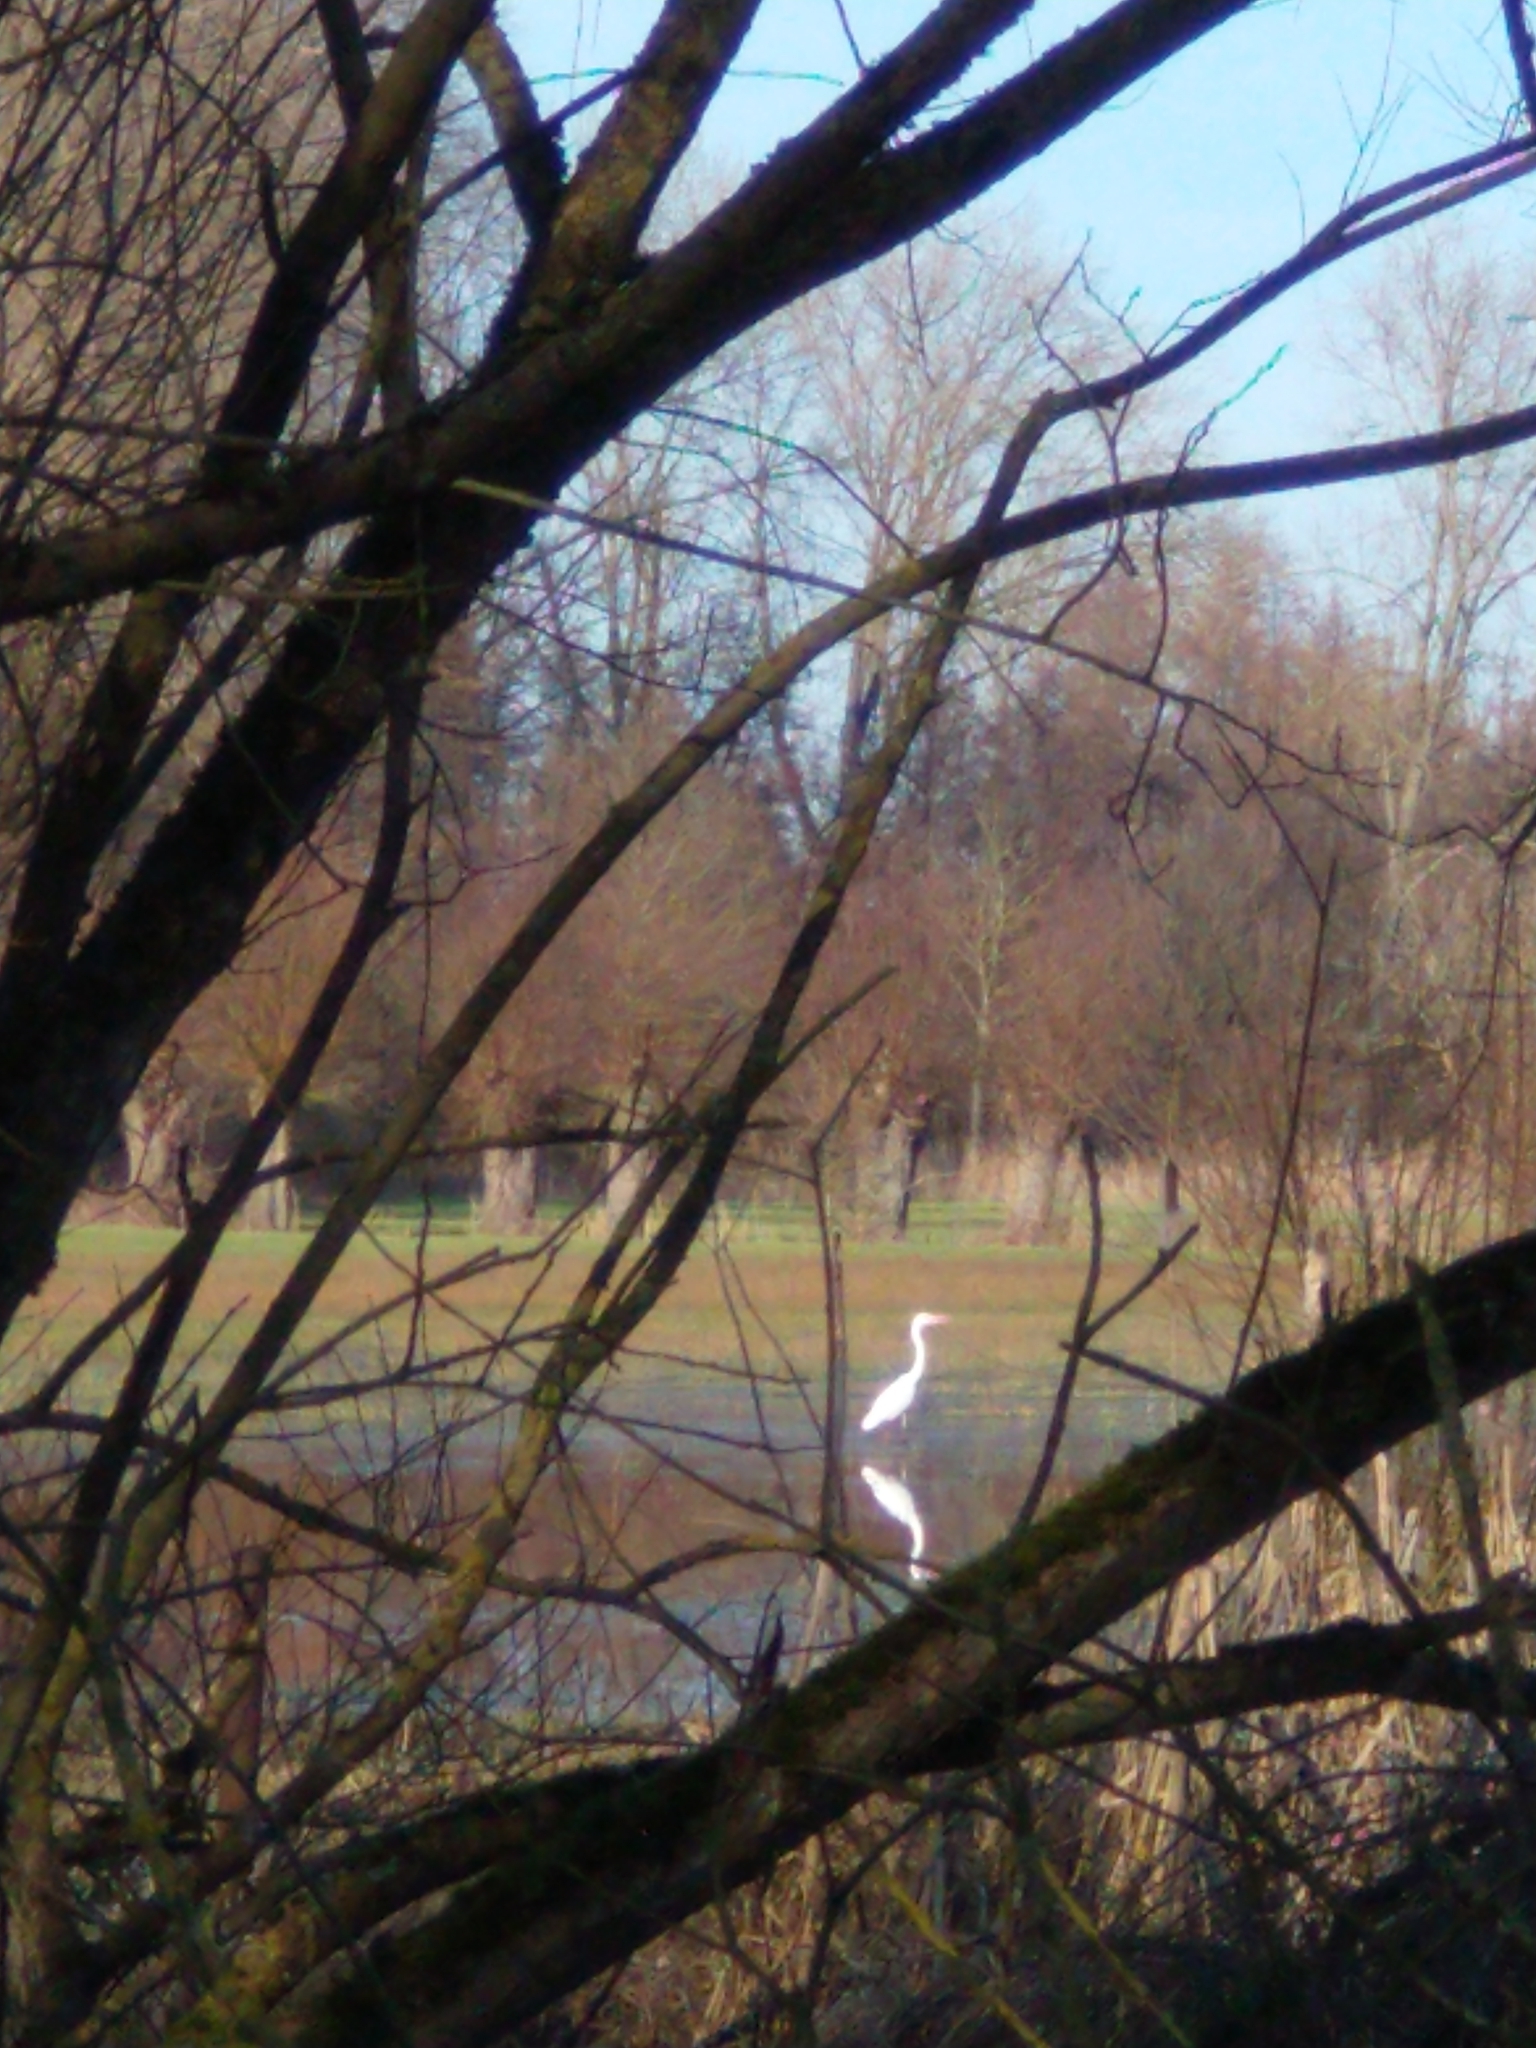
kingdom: Animalia
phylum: Chordata
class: Aves
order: Pelecaniformes
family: Ardeidae
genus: Ardea
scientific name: Ardea alba
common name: Great egret
